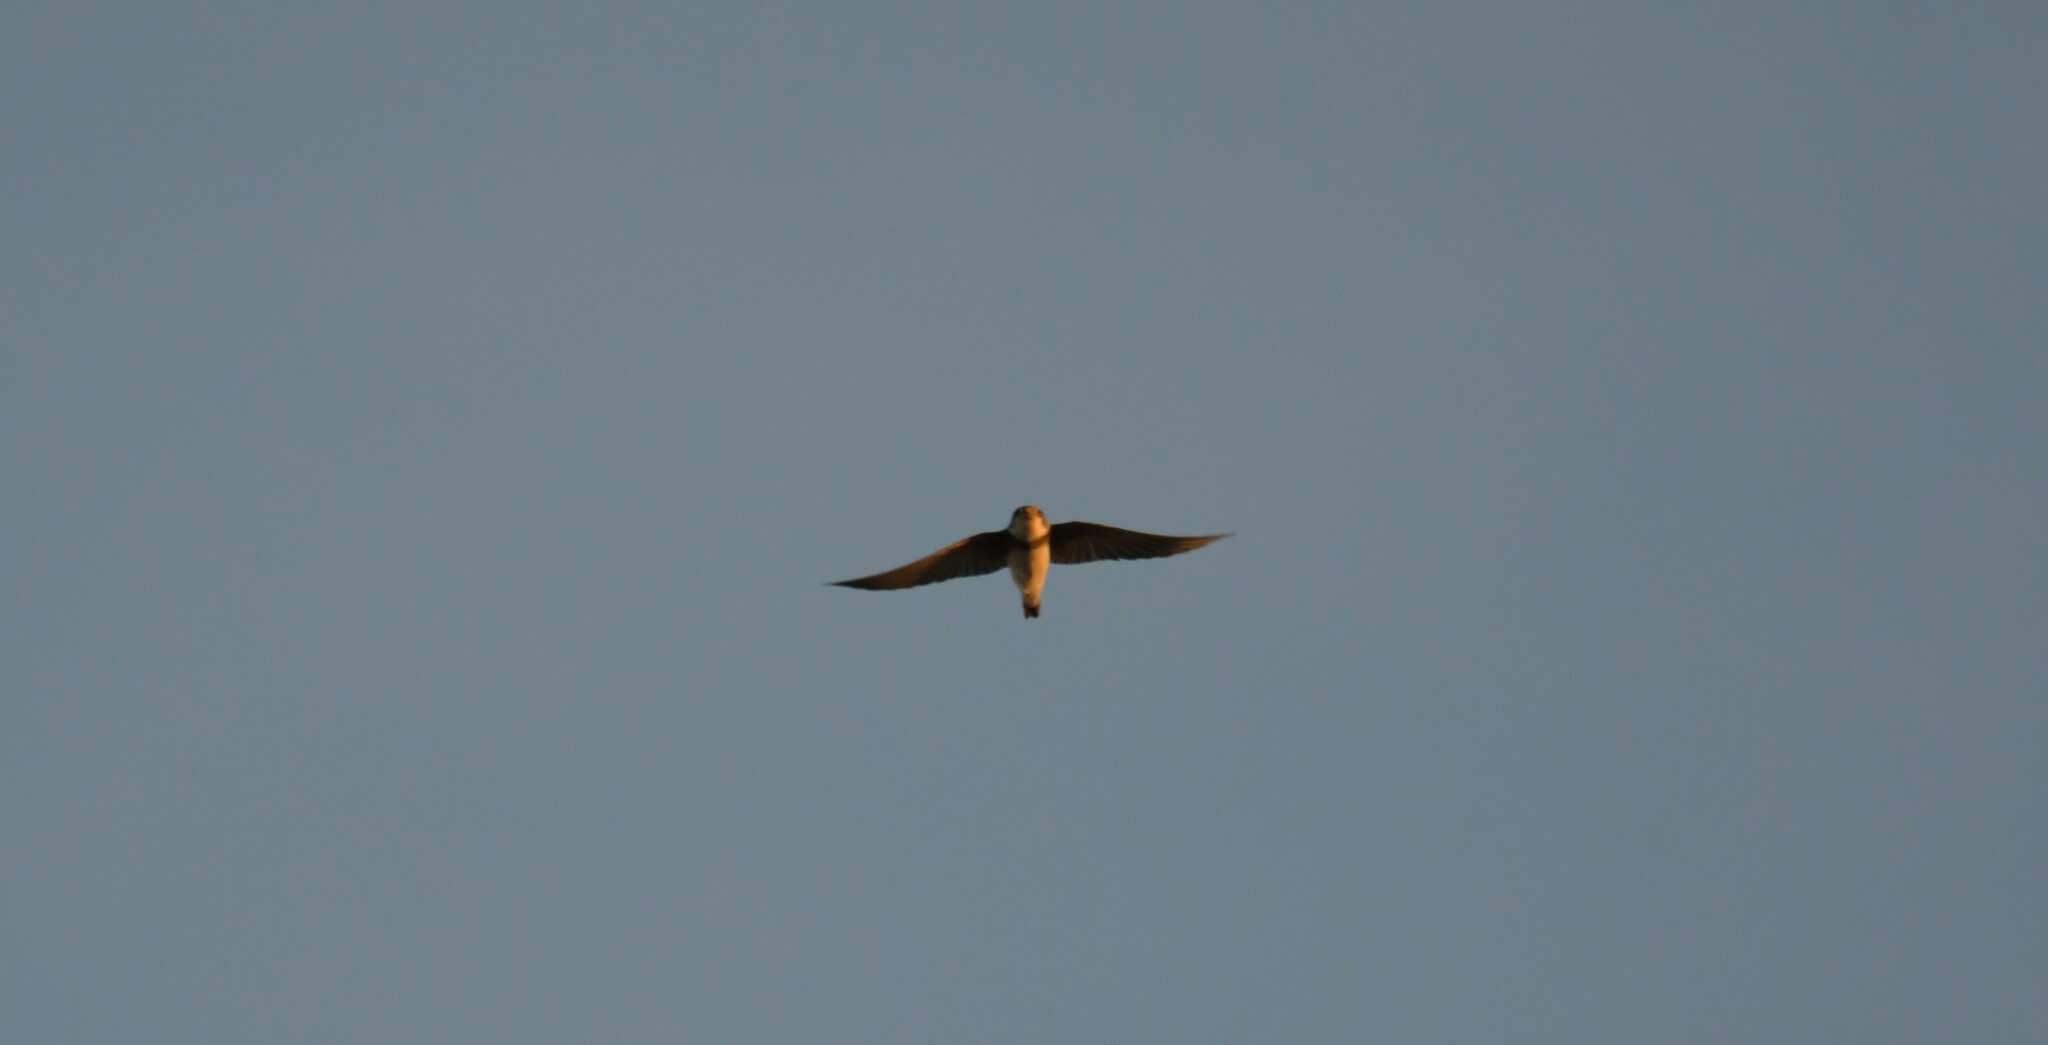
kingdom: Animalia
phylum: Chordata
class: Aves
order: Passeriformes
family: Hirundinidae
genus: Riparia
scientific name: Riparia riparia
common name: Sand martin
